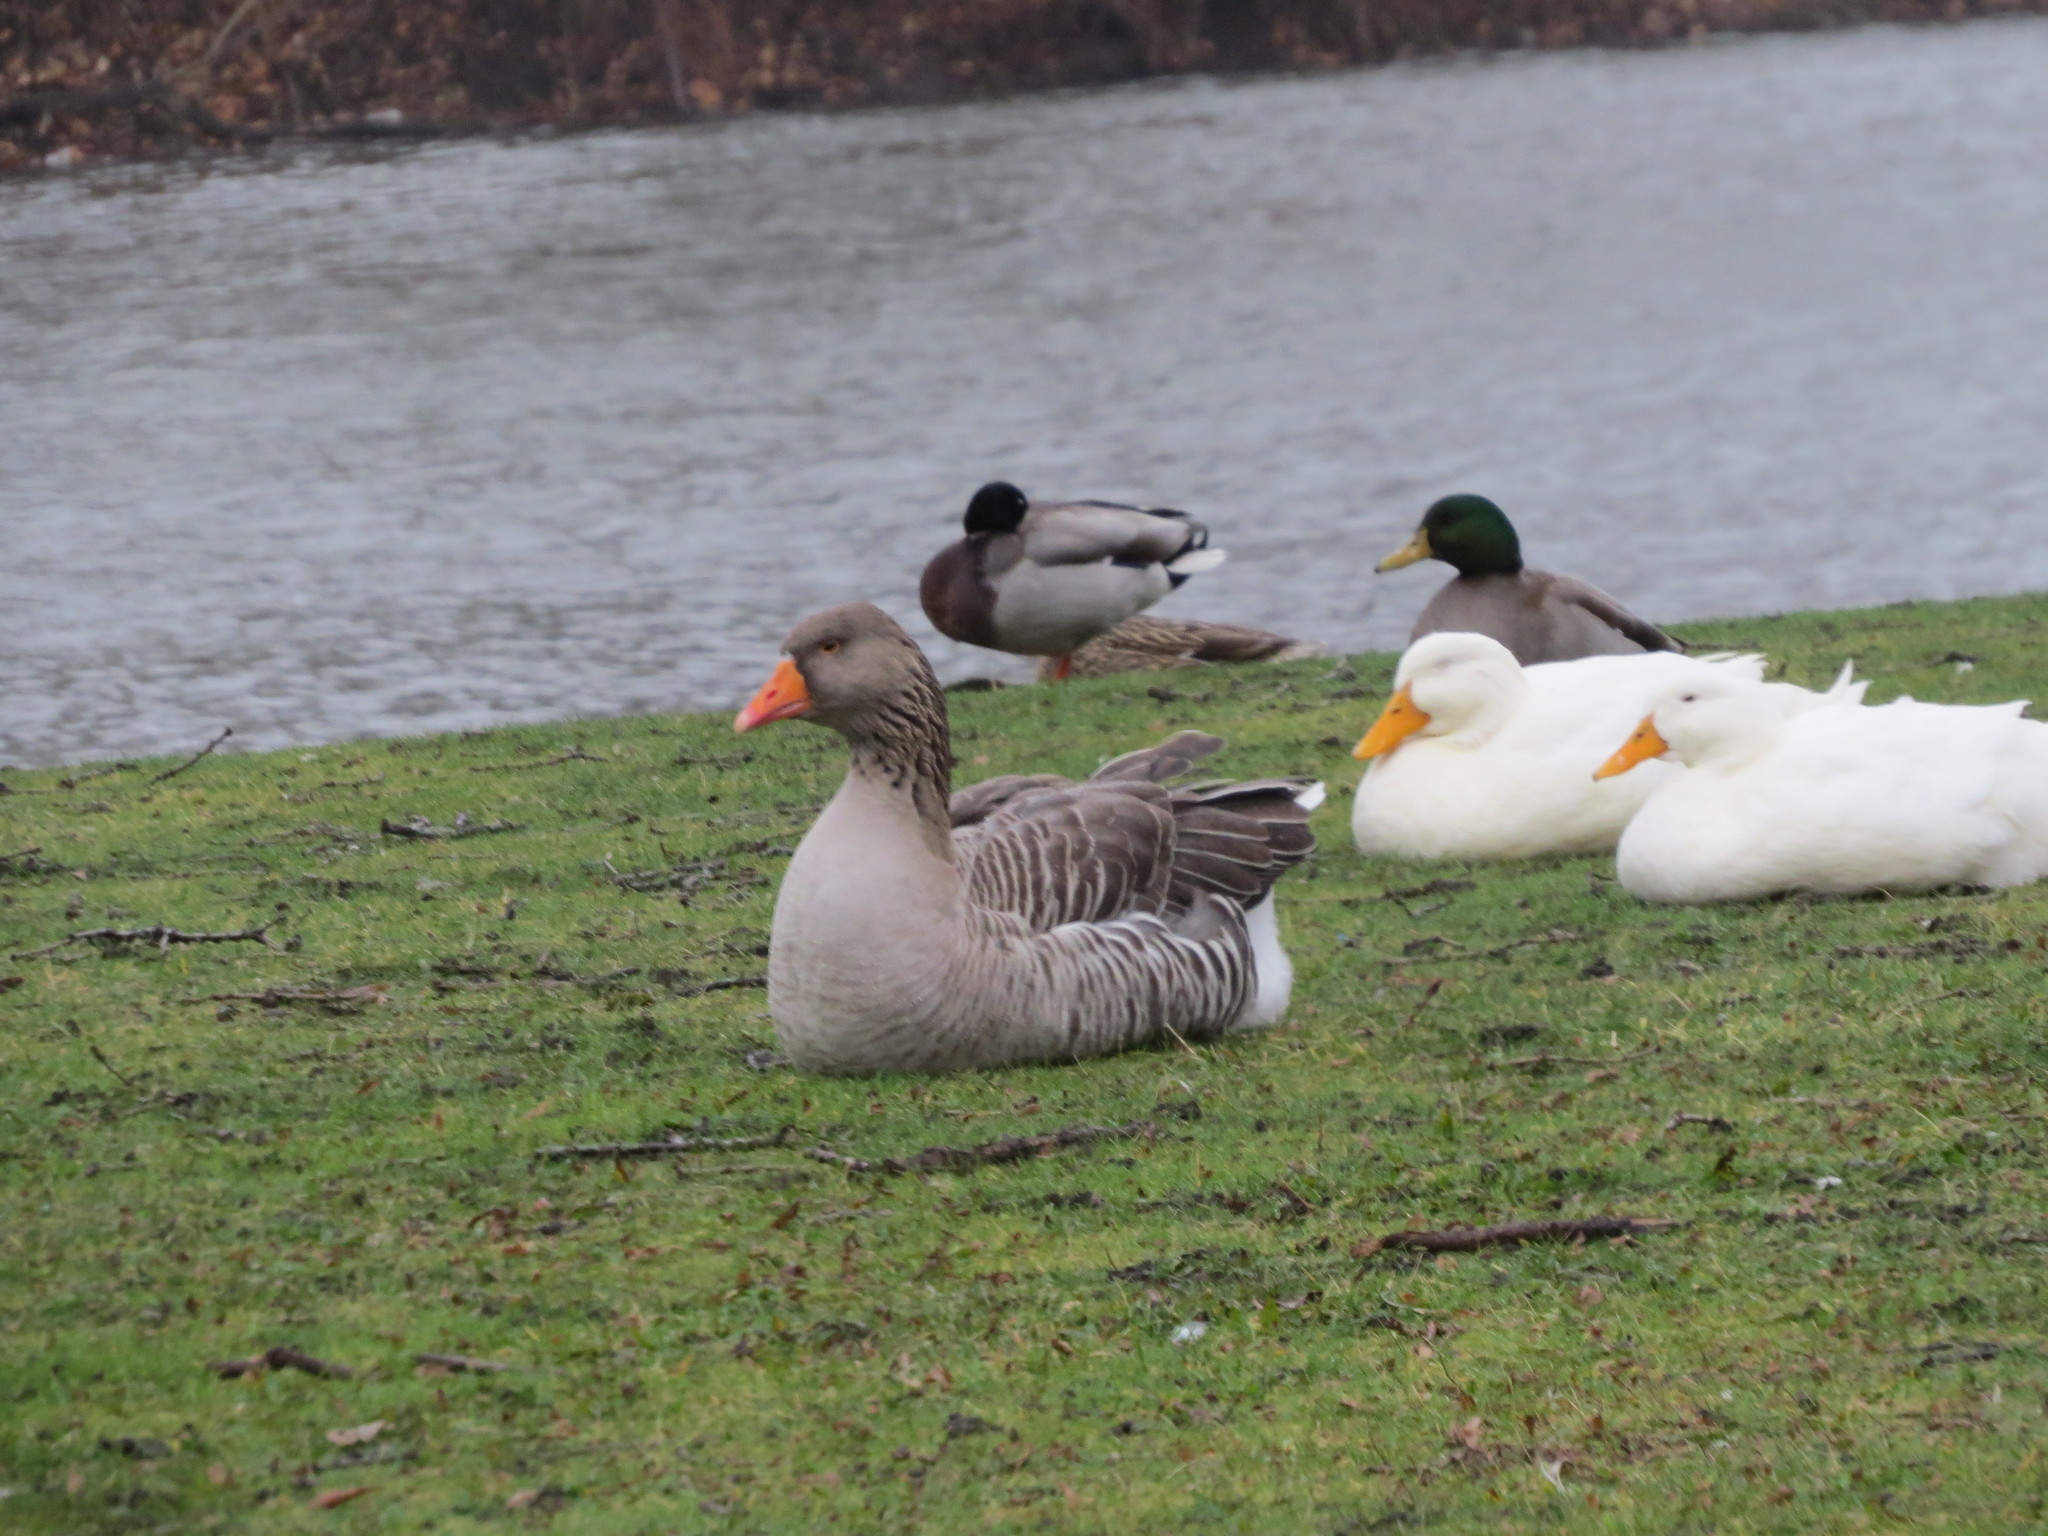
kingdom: Animalia
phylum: Chordata
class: Aves
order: Anseriformes
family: Anatidae
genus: Anser
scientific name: Anser anser
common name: Greylag goose
